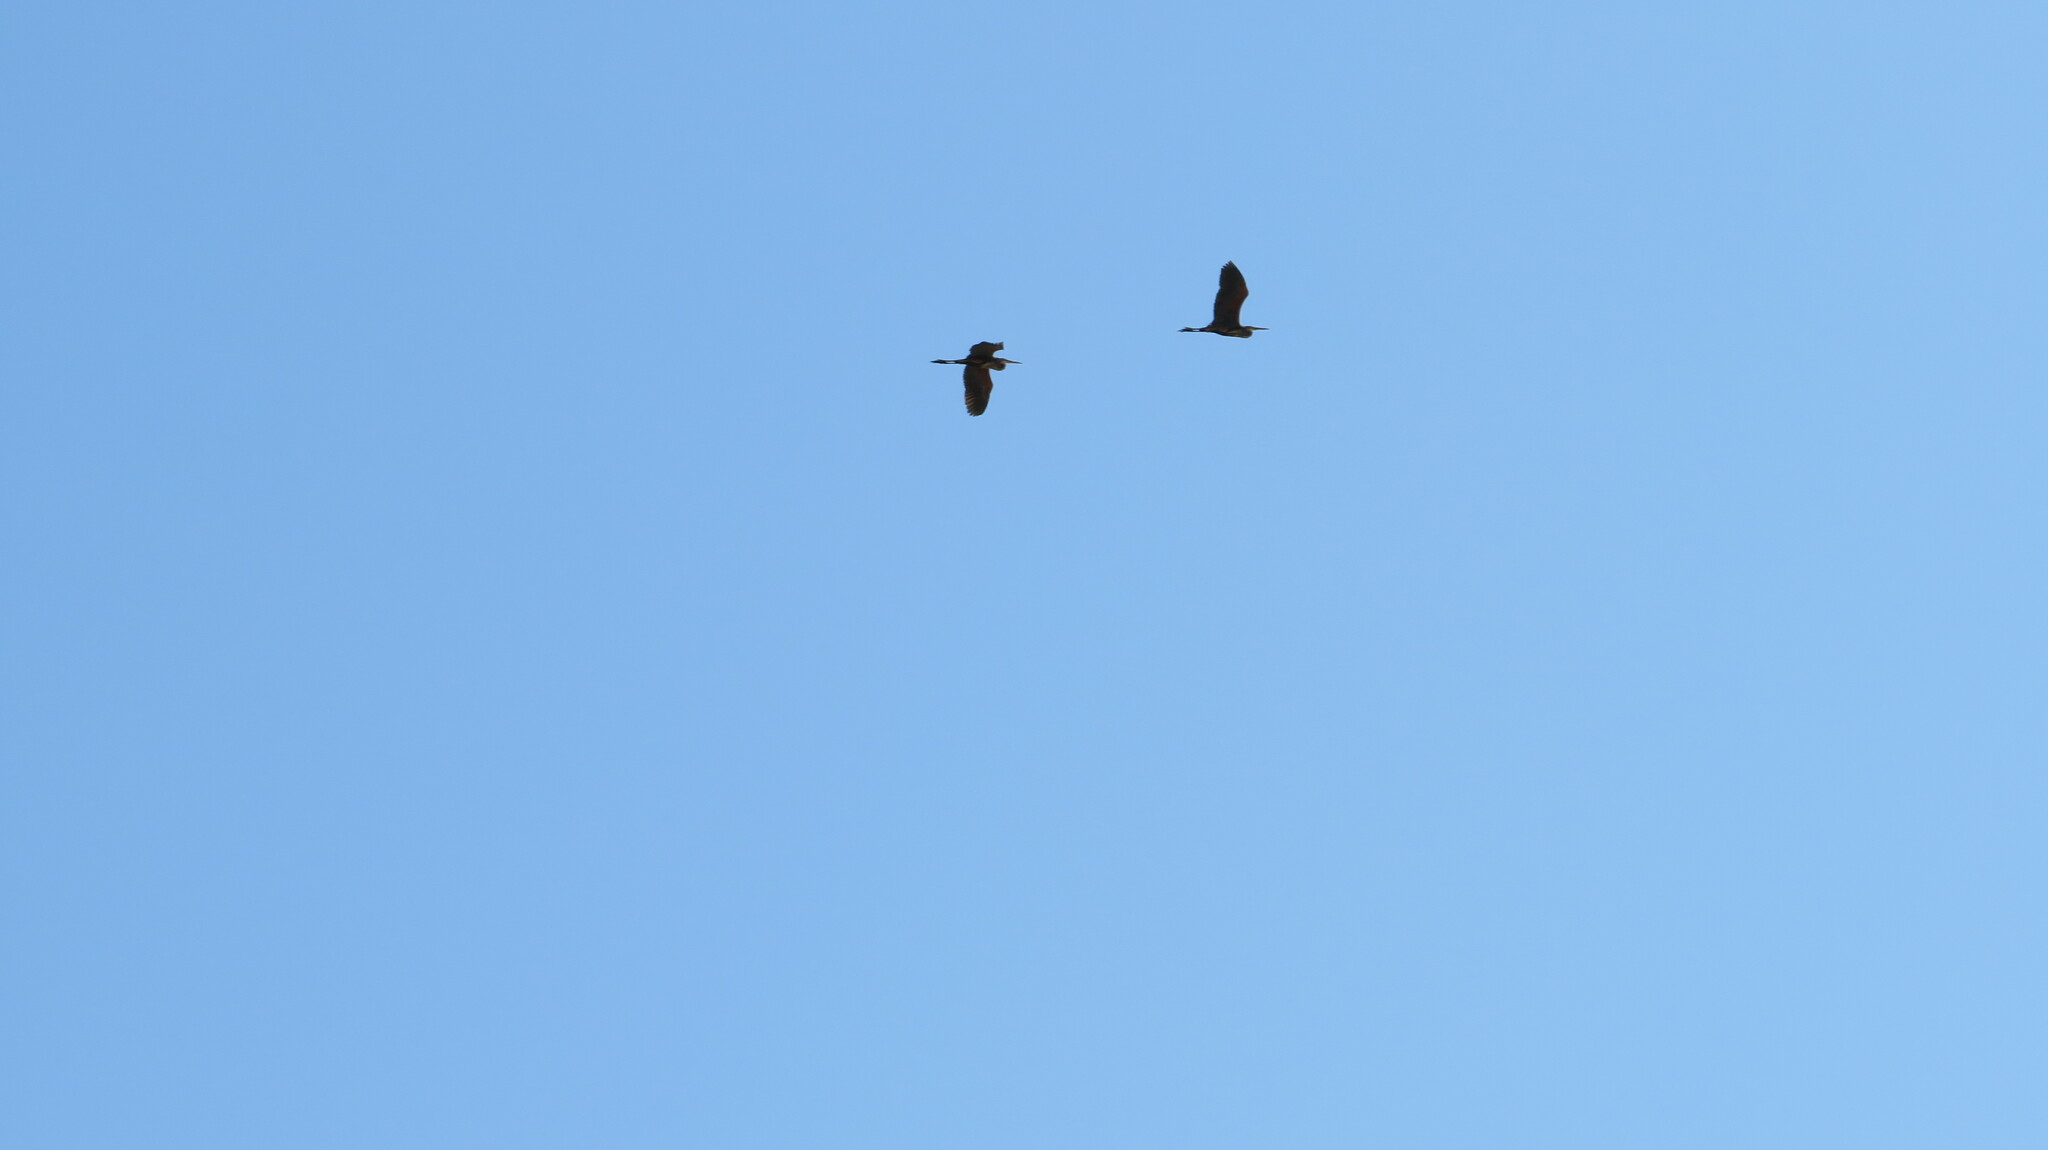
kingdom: Animalia
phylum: Chordata
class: Aves
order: Pelecaniformes
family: Ardeidae
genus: Ardea
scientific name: Ardea purpurea
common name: Purple heron
